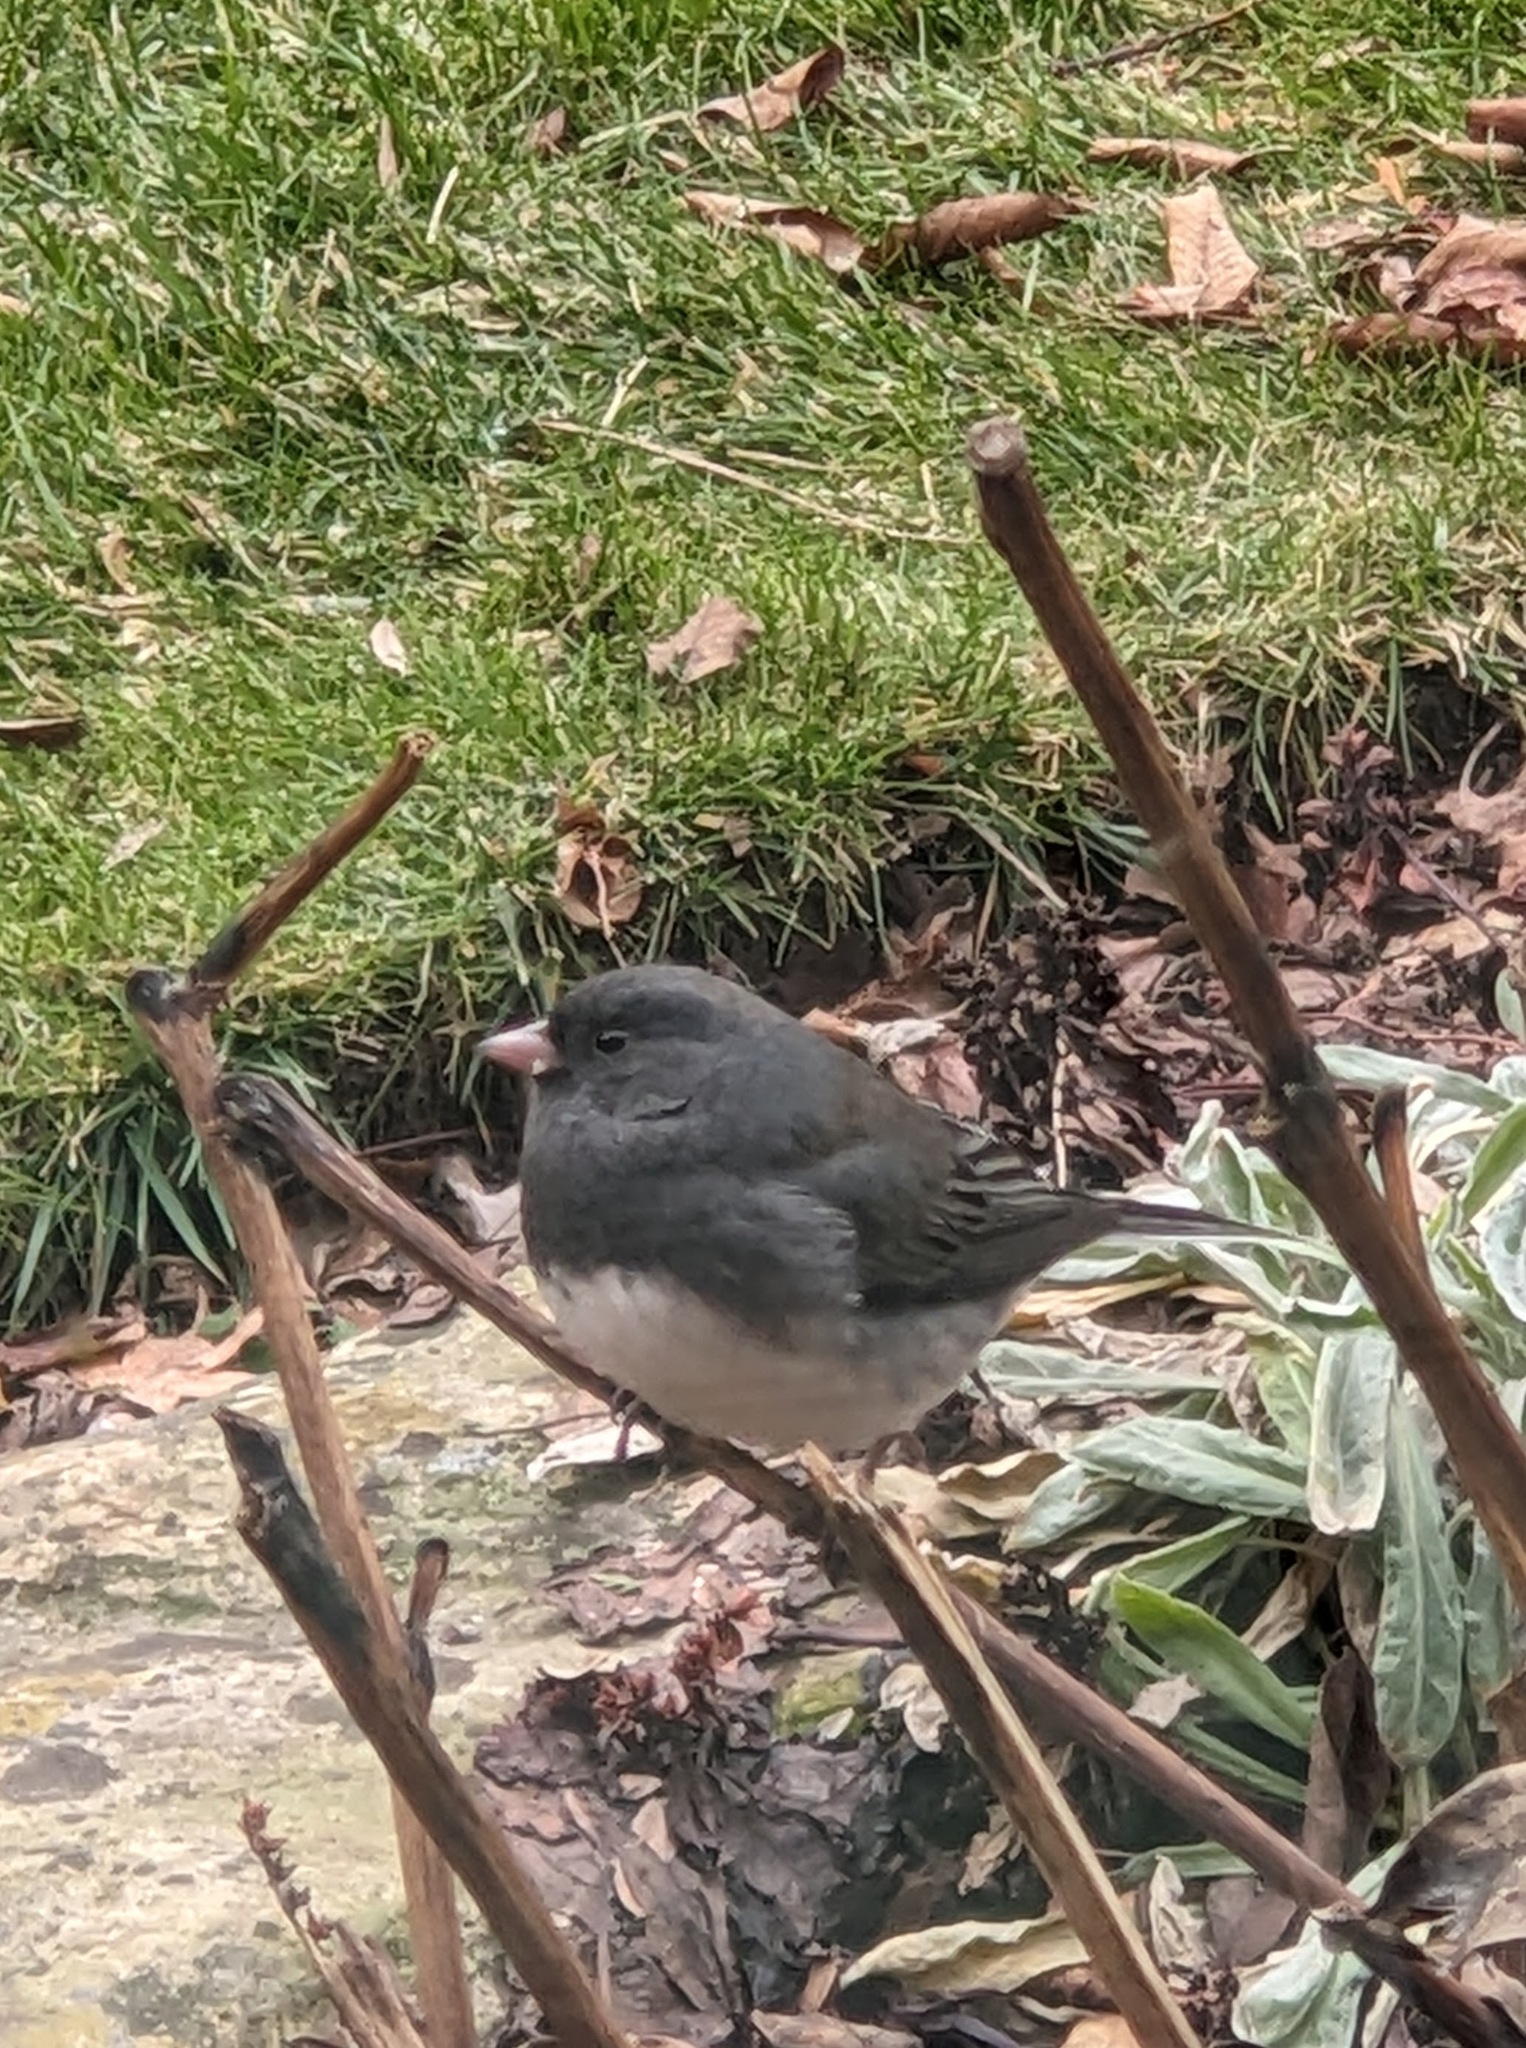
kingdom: Animalia
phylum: Chordata
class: Aves
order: Passeriformes
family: Passerellidae
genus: Junco
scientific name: Junco hyemalis
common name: Dark-eyed junco
